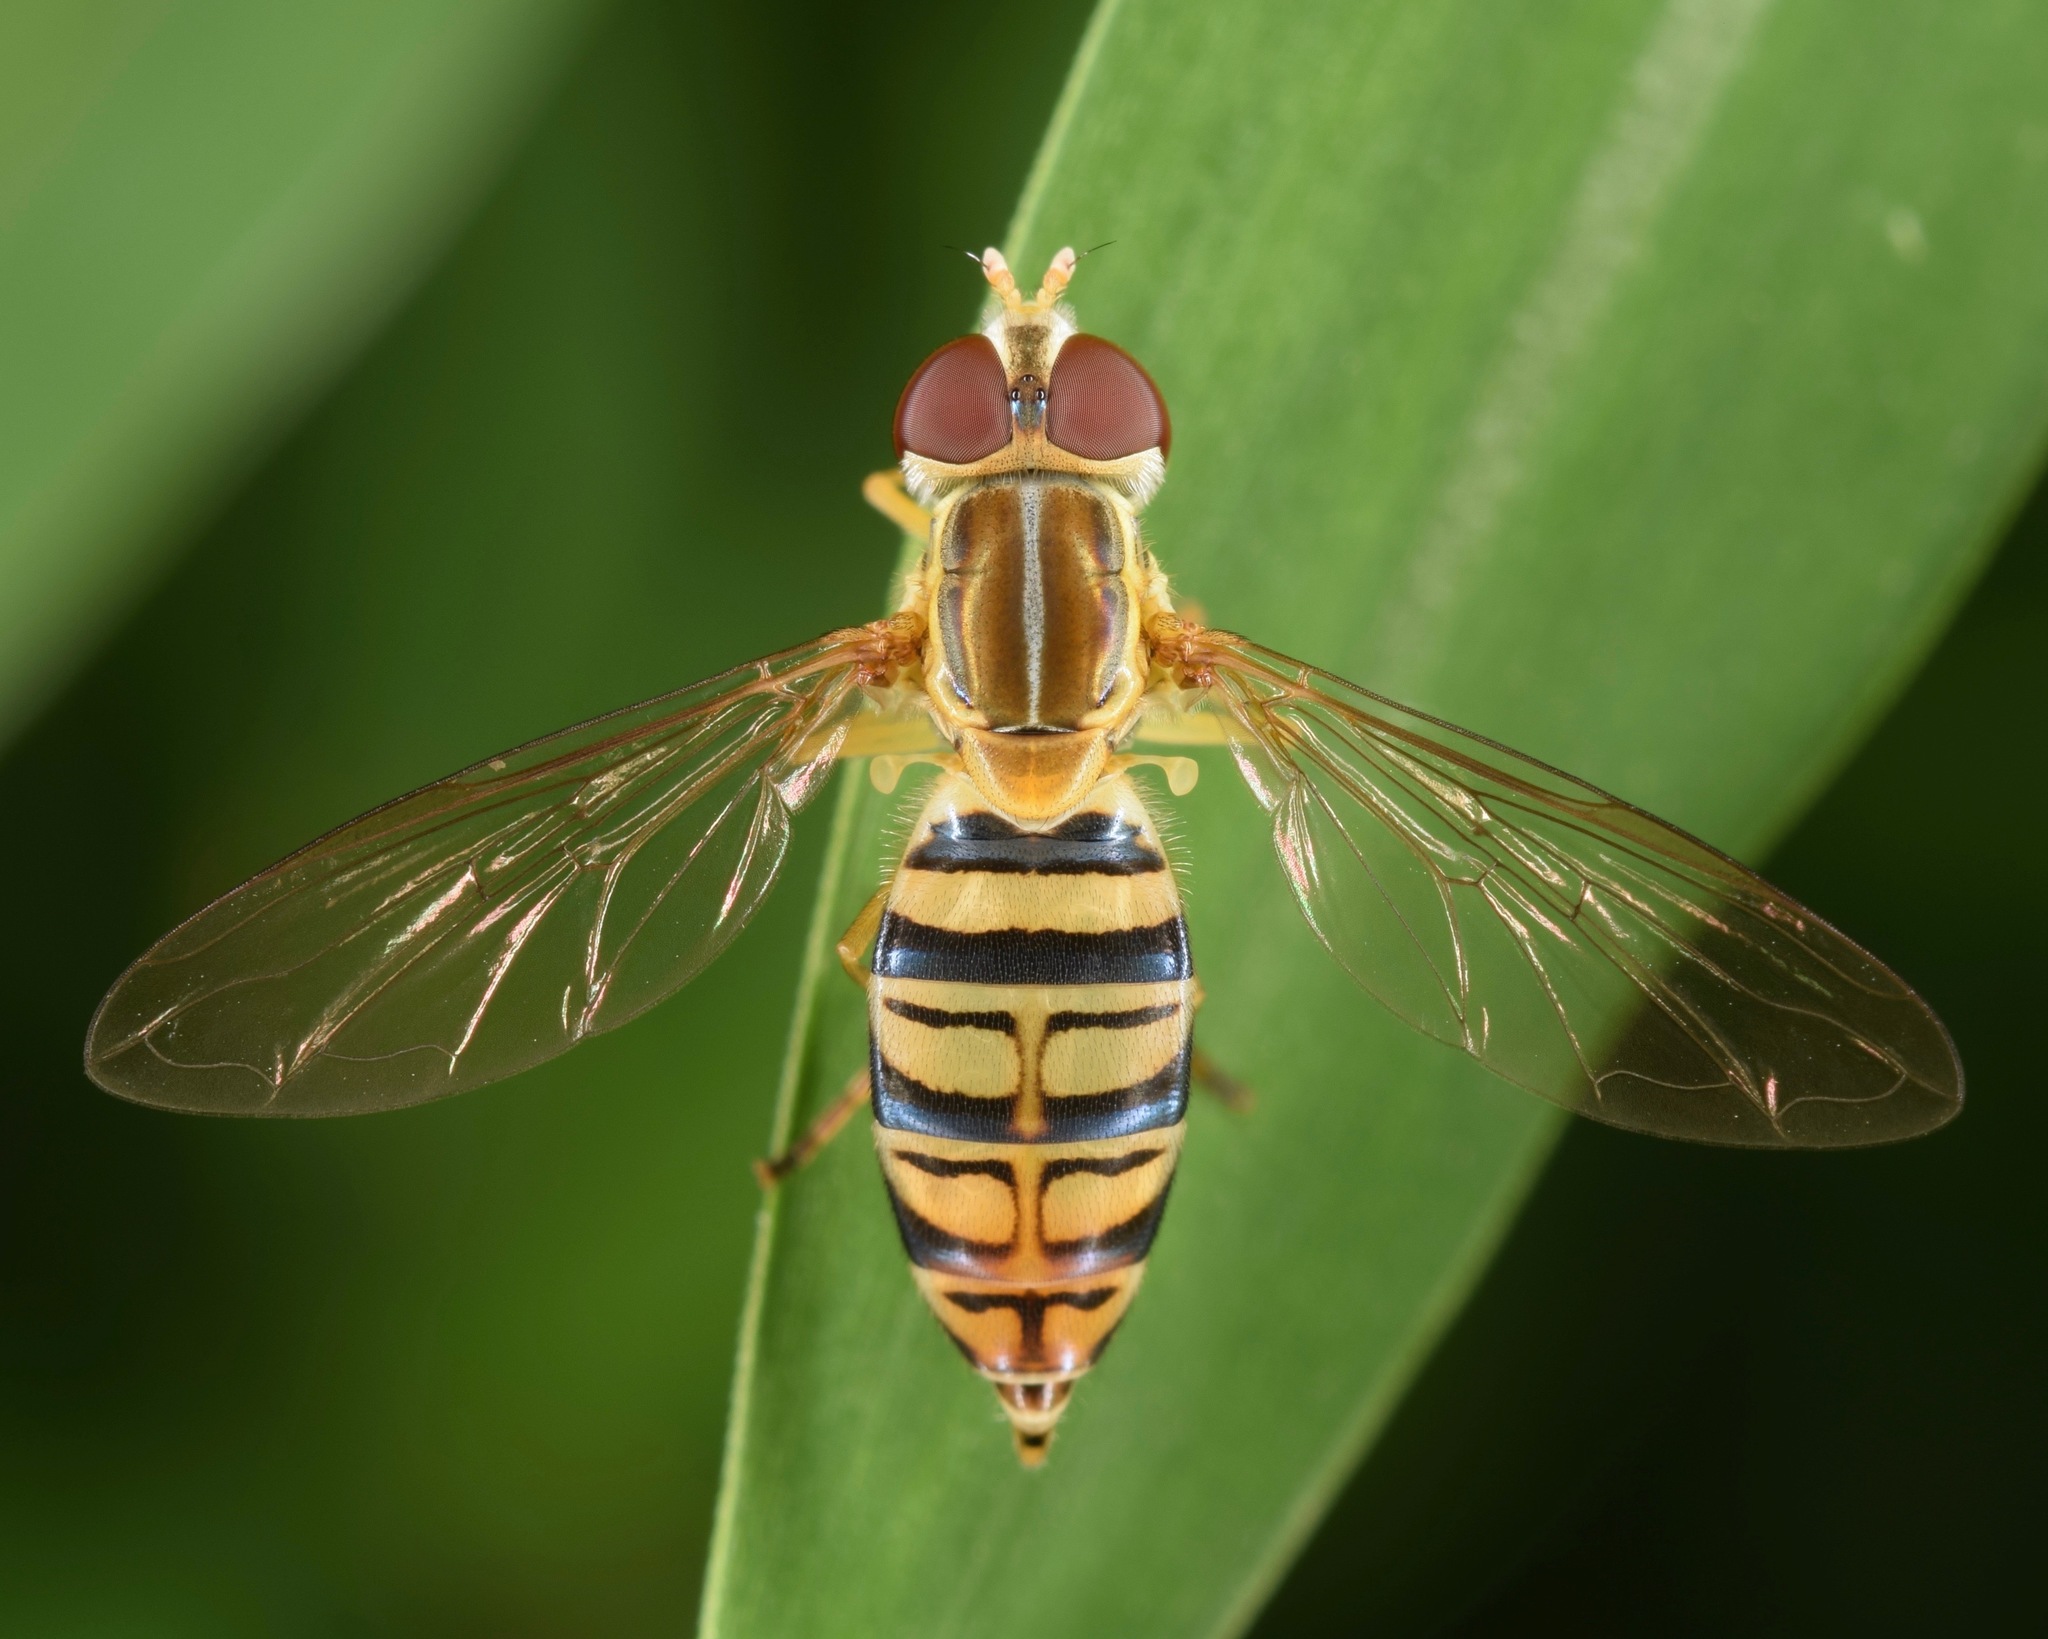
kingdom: Animalia
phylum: Arthropoda
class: Insecta
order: Diptera
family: Syrphidae
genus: Toxomerus
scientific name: Toxomerus politus
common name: Maize calligrapher
